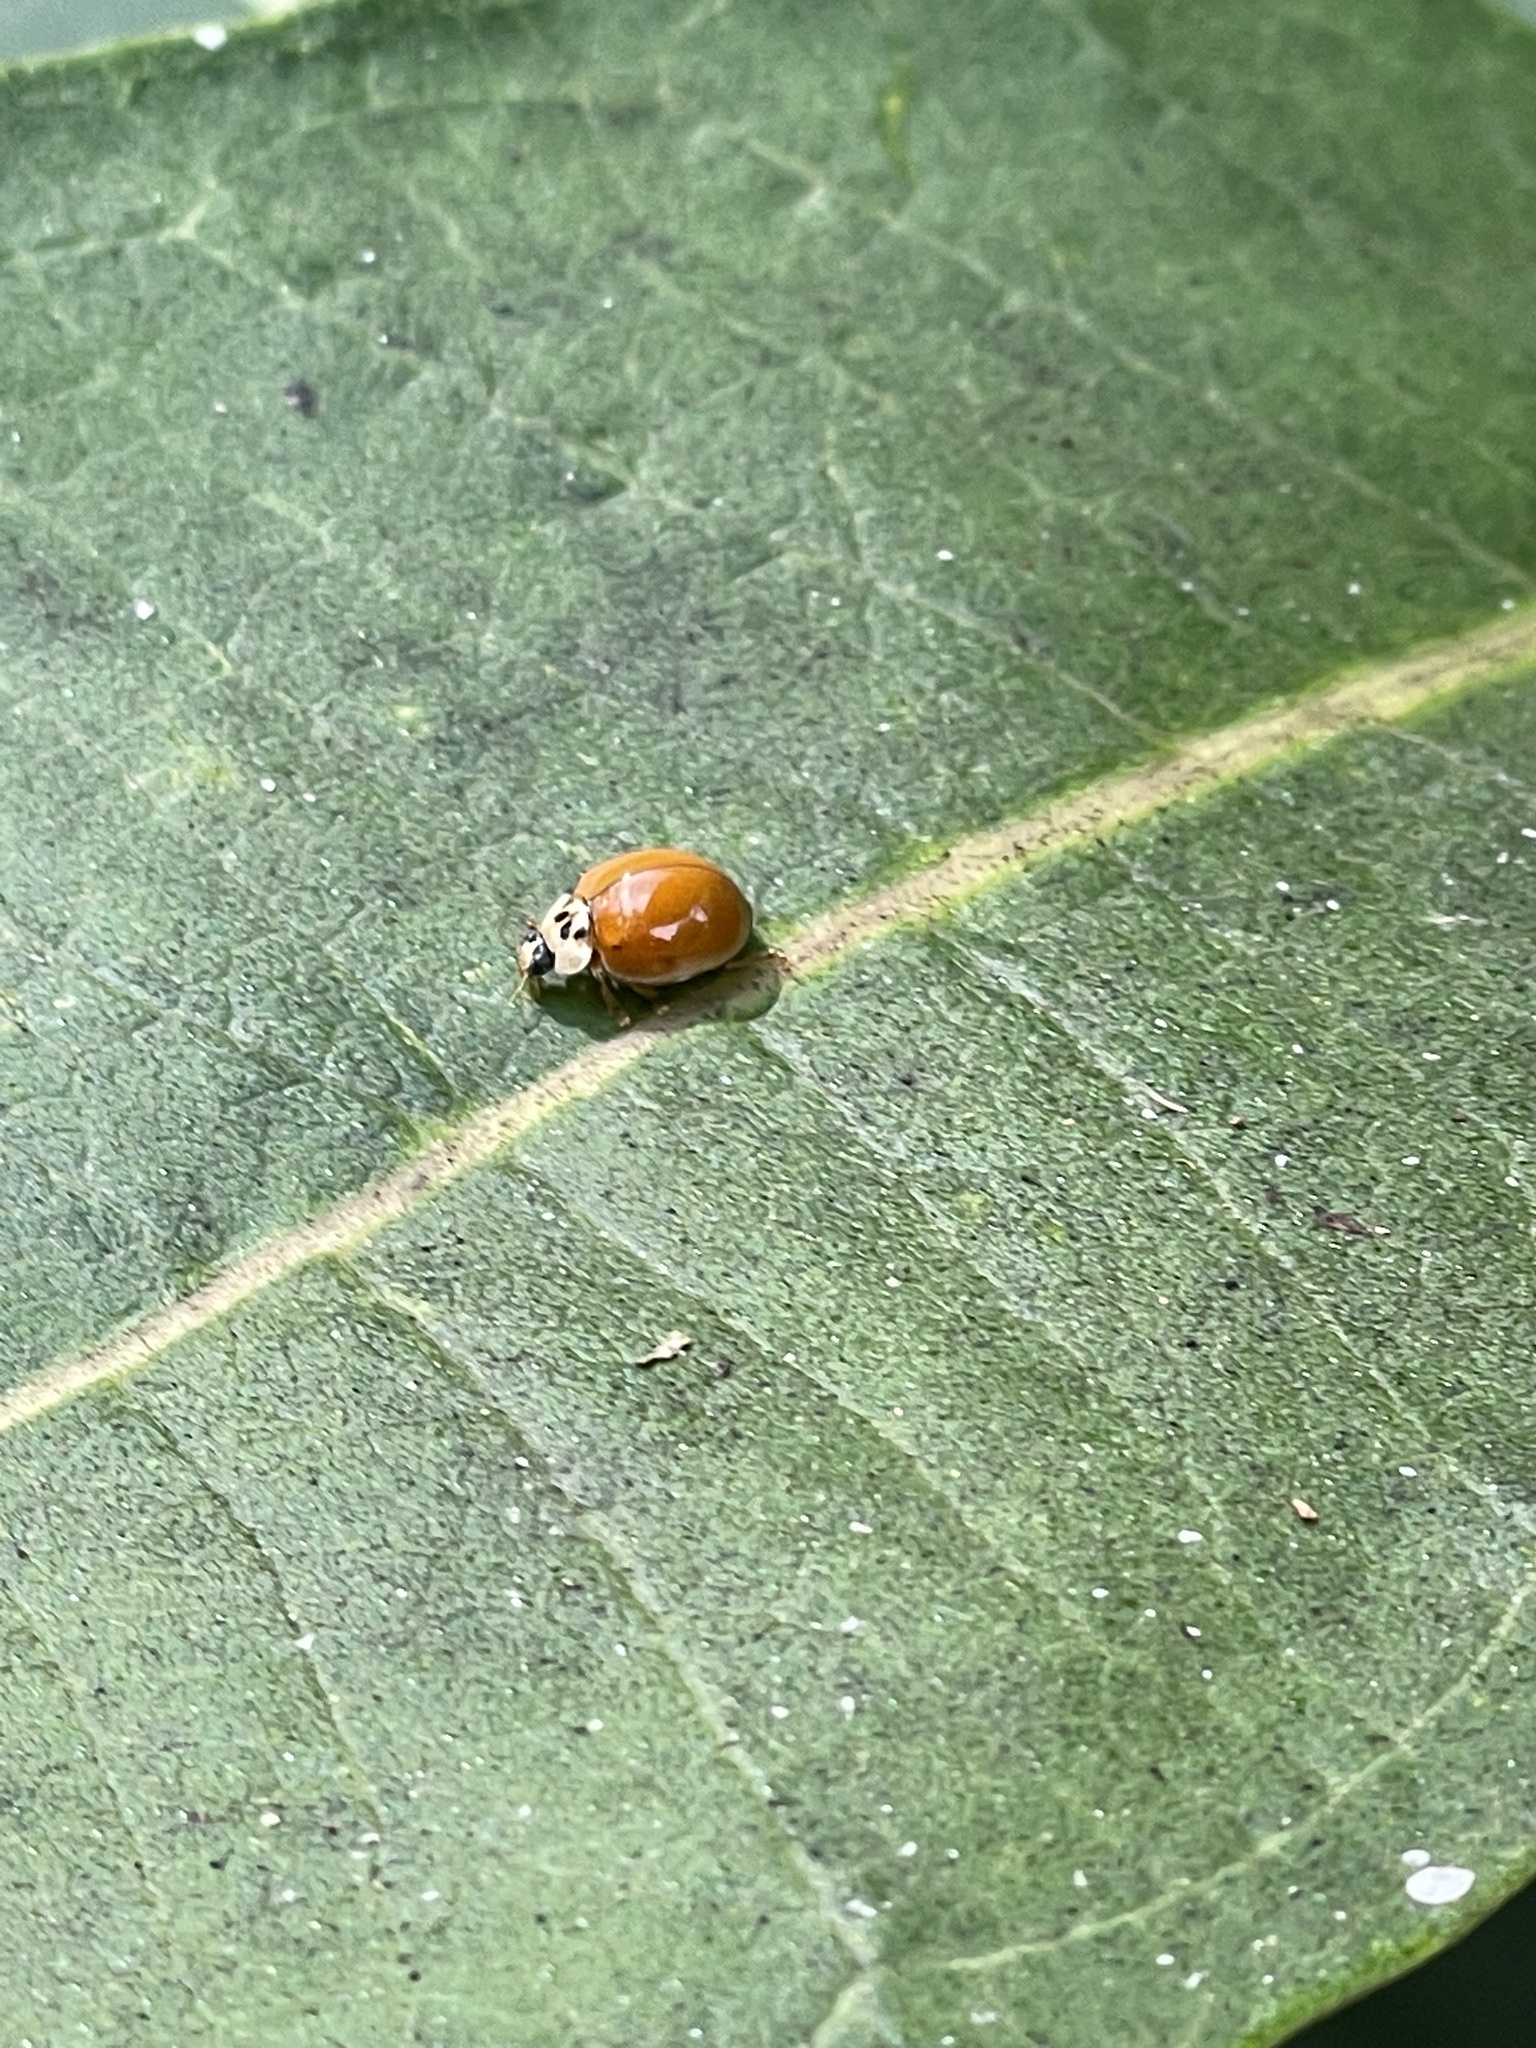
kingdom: Animalia
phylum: Arthropoda
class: Insecta
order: Coleoptera
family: Coccinellidae
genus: Harmonia
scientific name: Harmonia axyridis
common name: Harlequin ladybird
